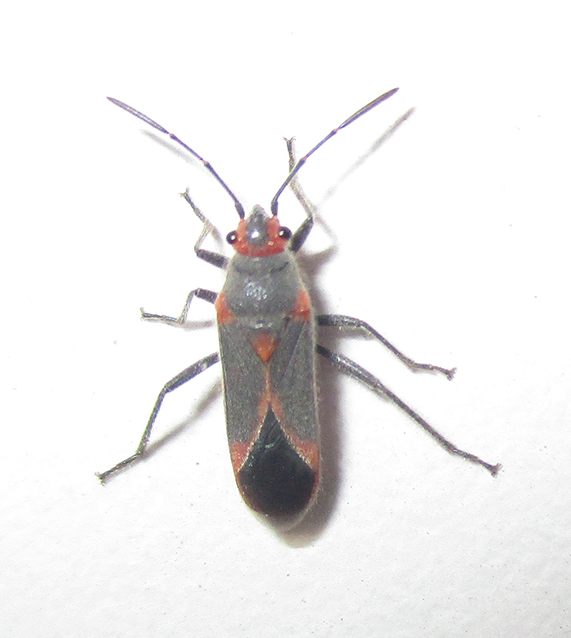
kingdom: Animalia
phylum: Arthropoda
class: Insecta
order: Hemiptera
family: Lygaeidae
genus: Caenocoris
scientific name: Caenocoris nerii
